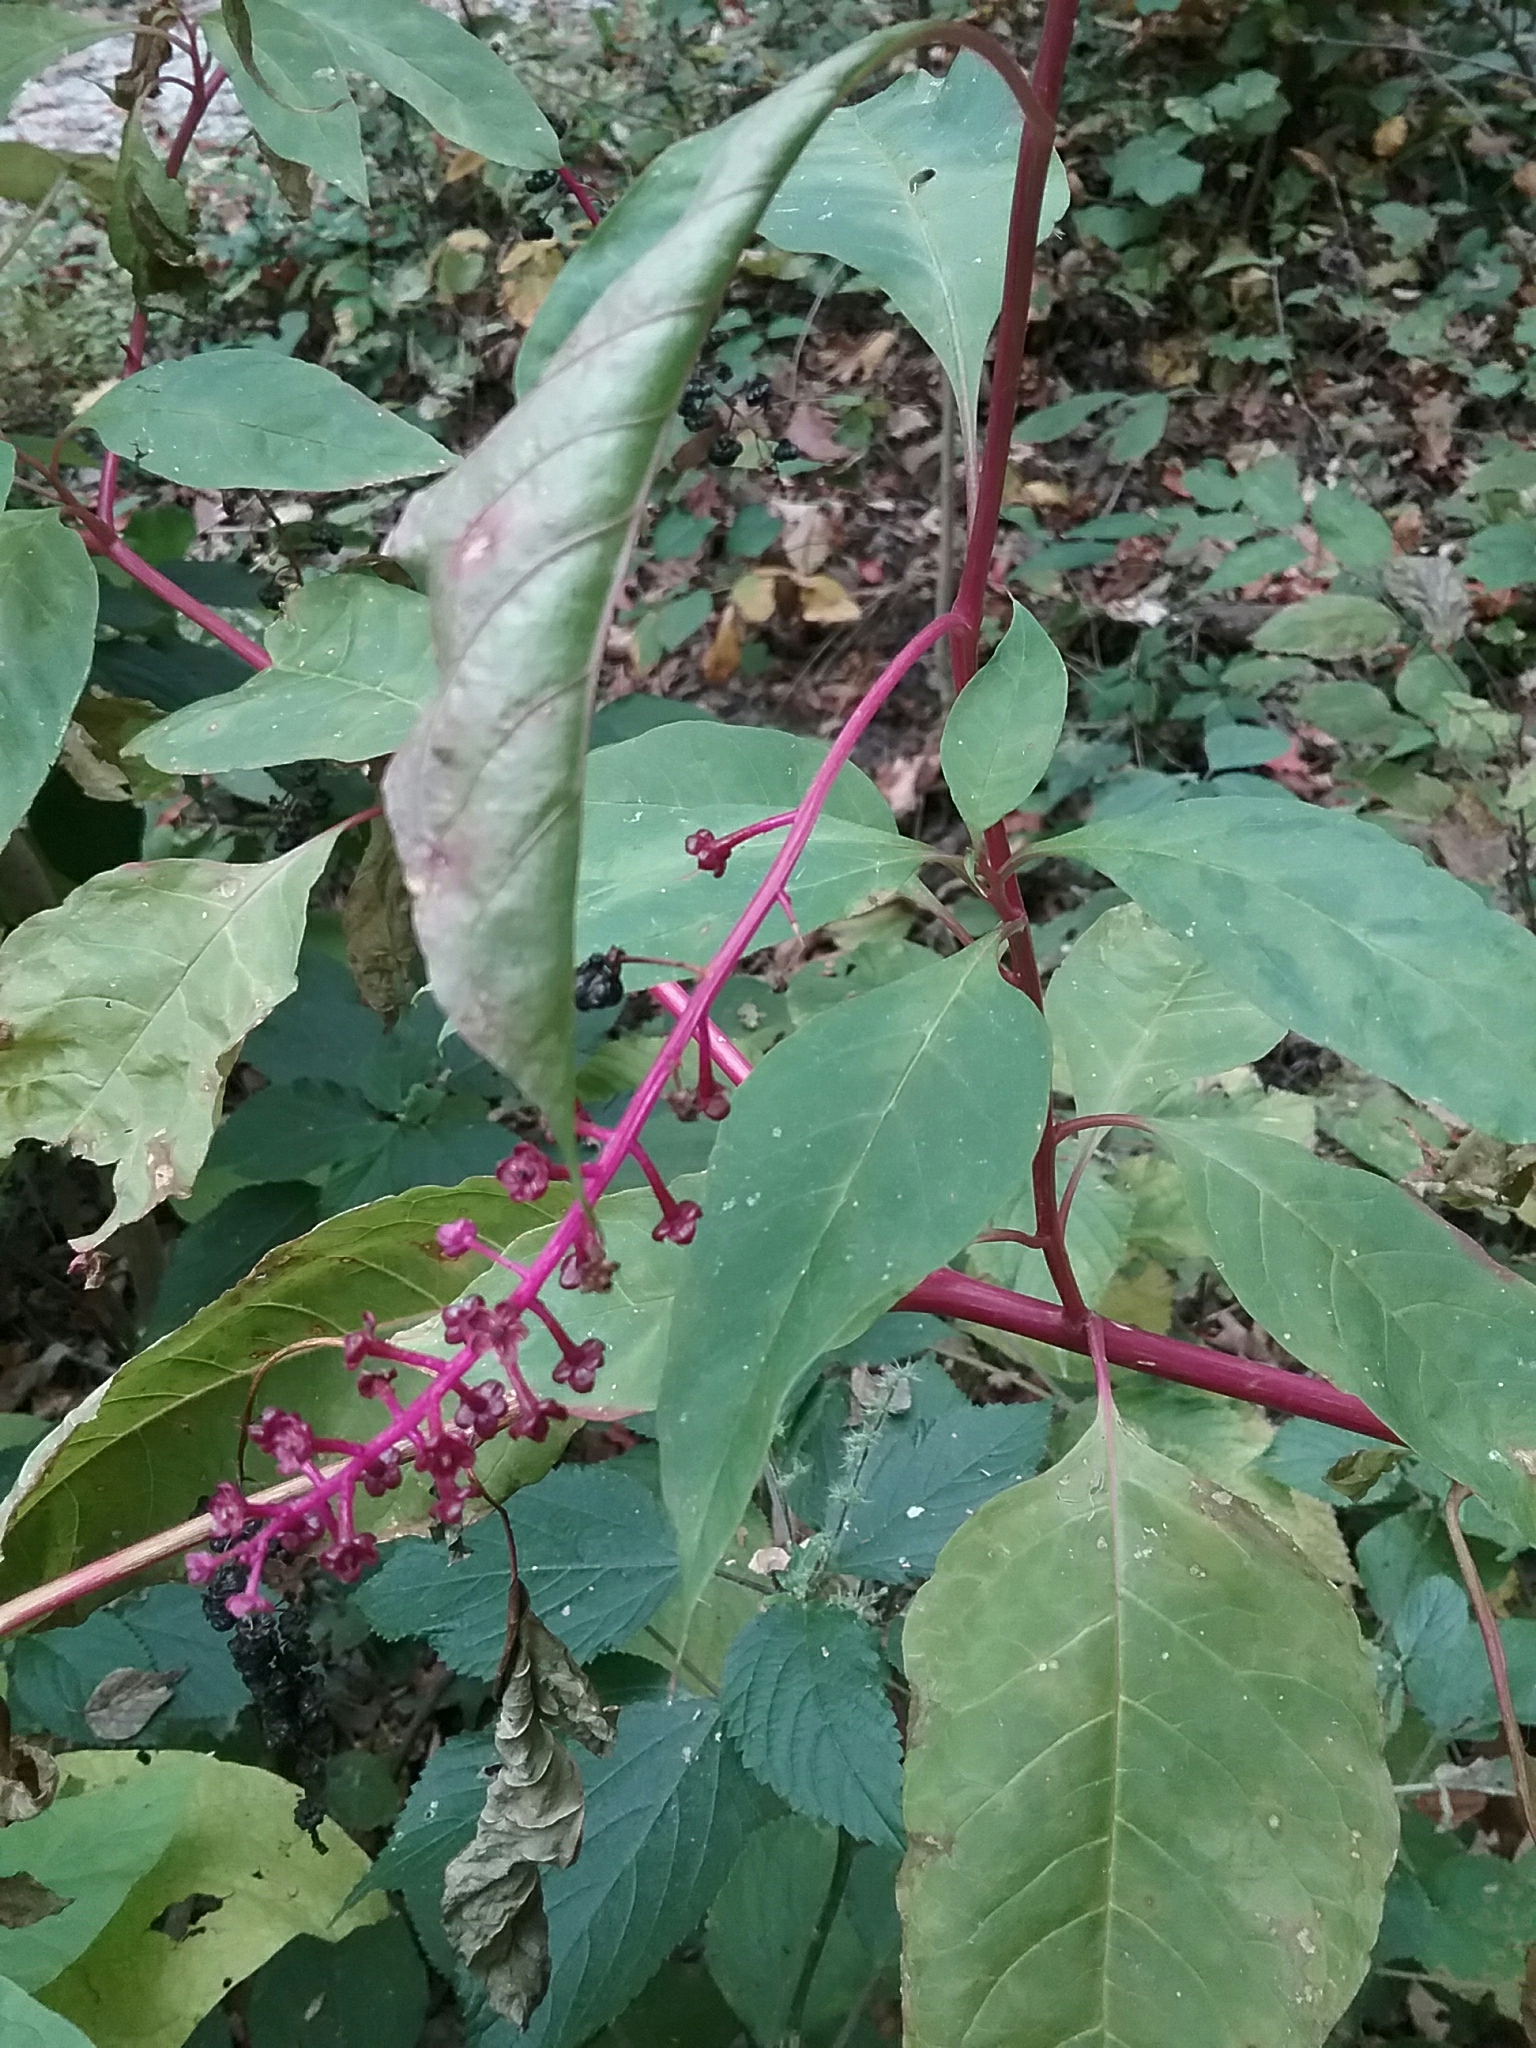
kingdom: Plantae
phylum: Tracheophyta
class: Magnoliopsida
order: Caryophyllales
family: Phytolaccaceae
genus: Phytolacca
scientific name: Phytolacca americana
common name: American pokeweed
